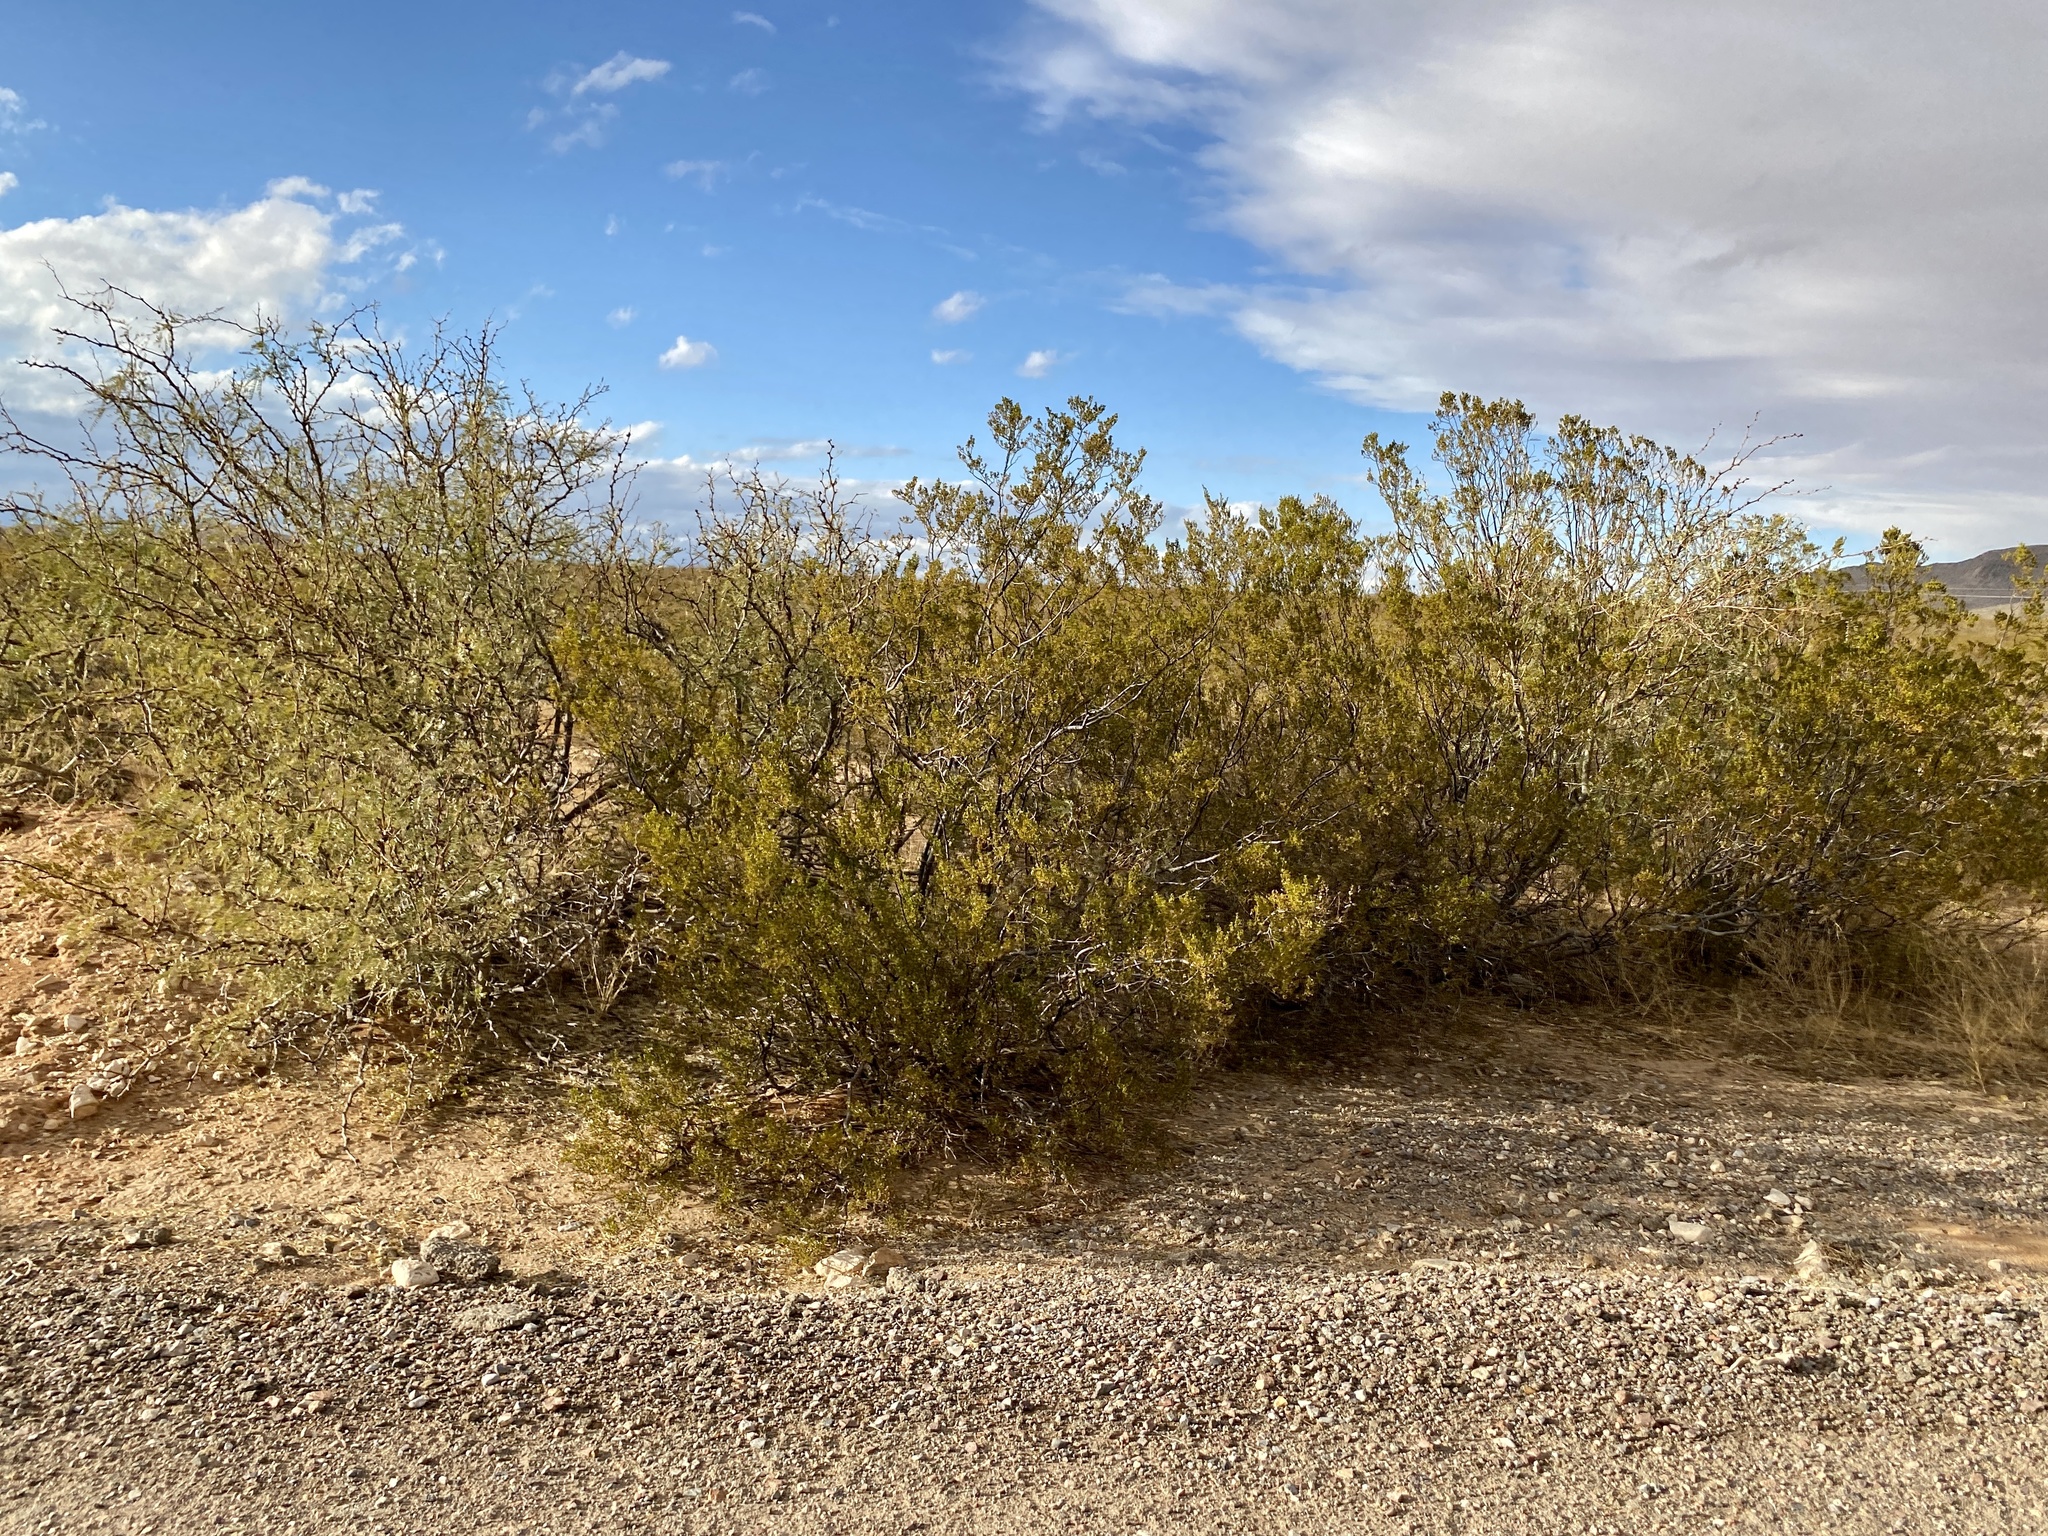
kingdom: Plantae
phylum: Tracheophyta
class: Magnoliopsida
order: Zygophyllales
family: Zygophyllaceae
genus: Larrea
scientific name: Larrea tridentata
